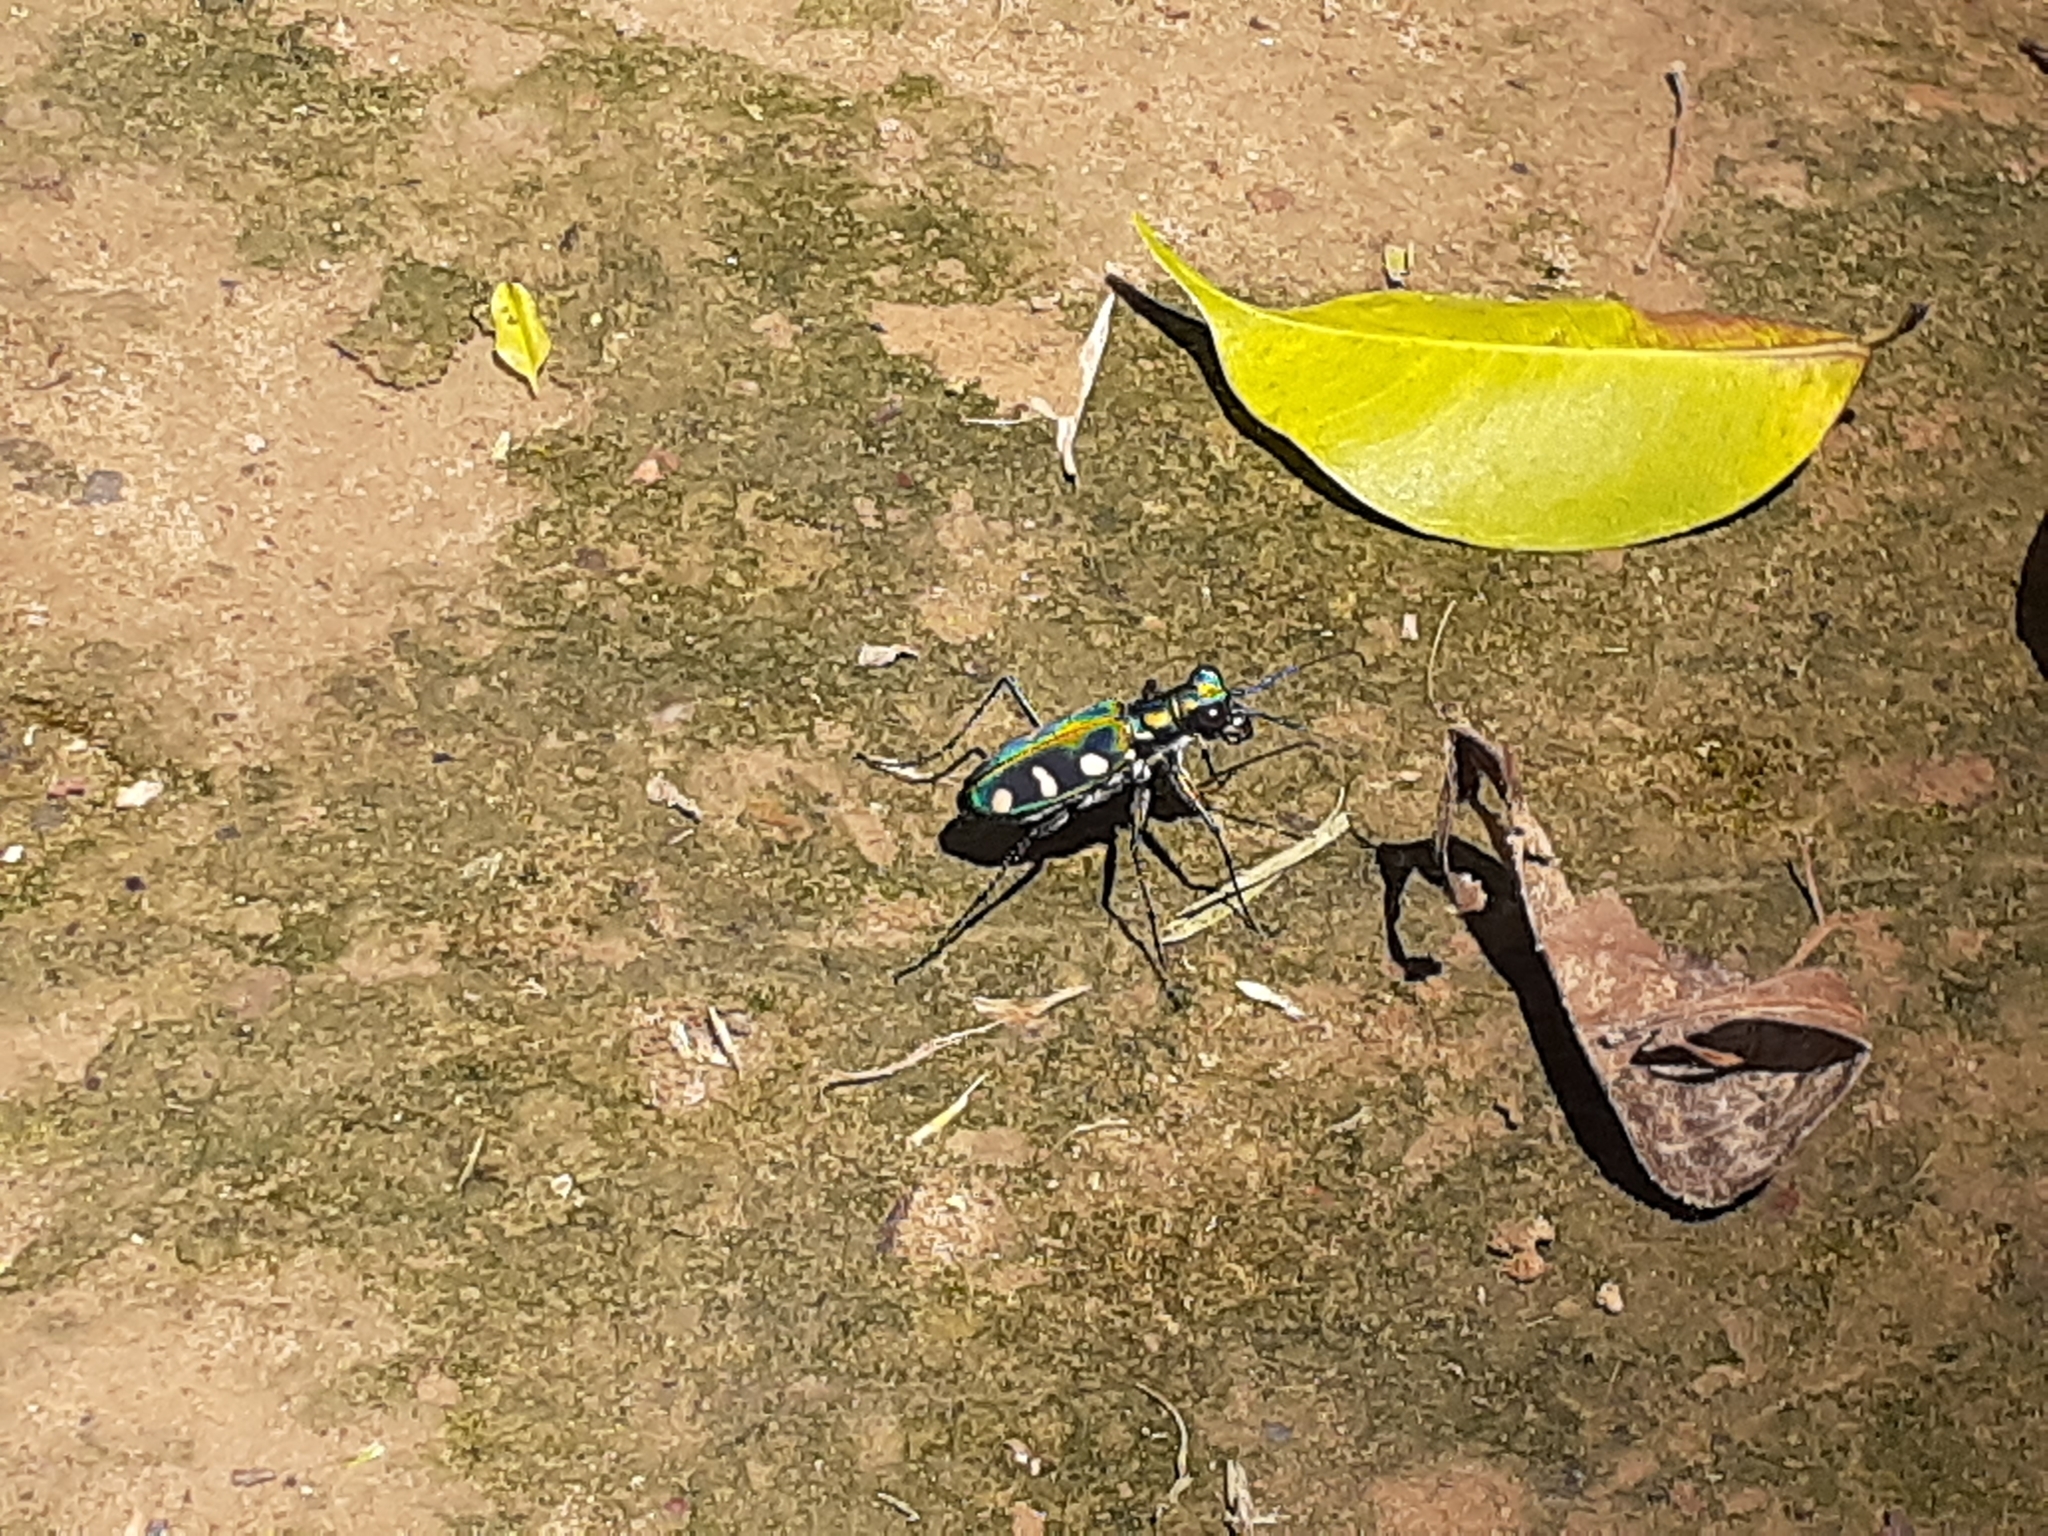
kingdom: Animalia
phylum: Arthropoda
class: Insecta
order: Coleoptera
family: Carabidae
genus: Cicindela
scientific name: Cicindela batesi
